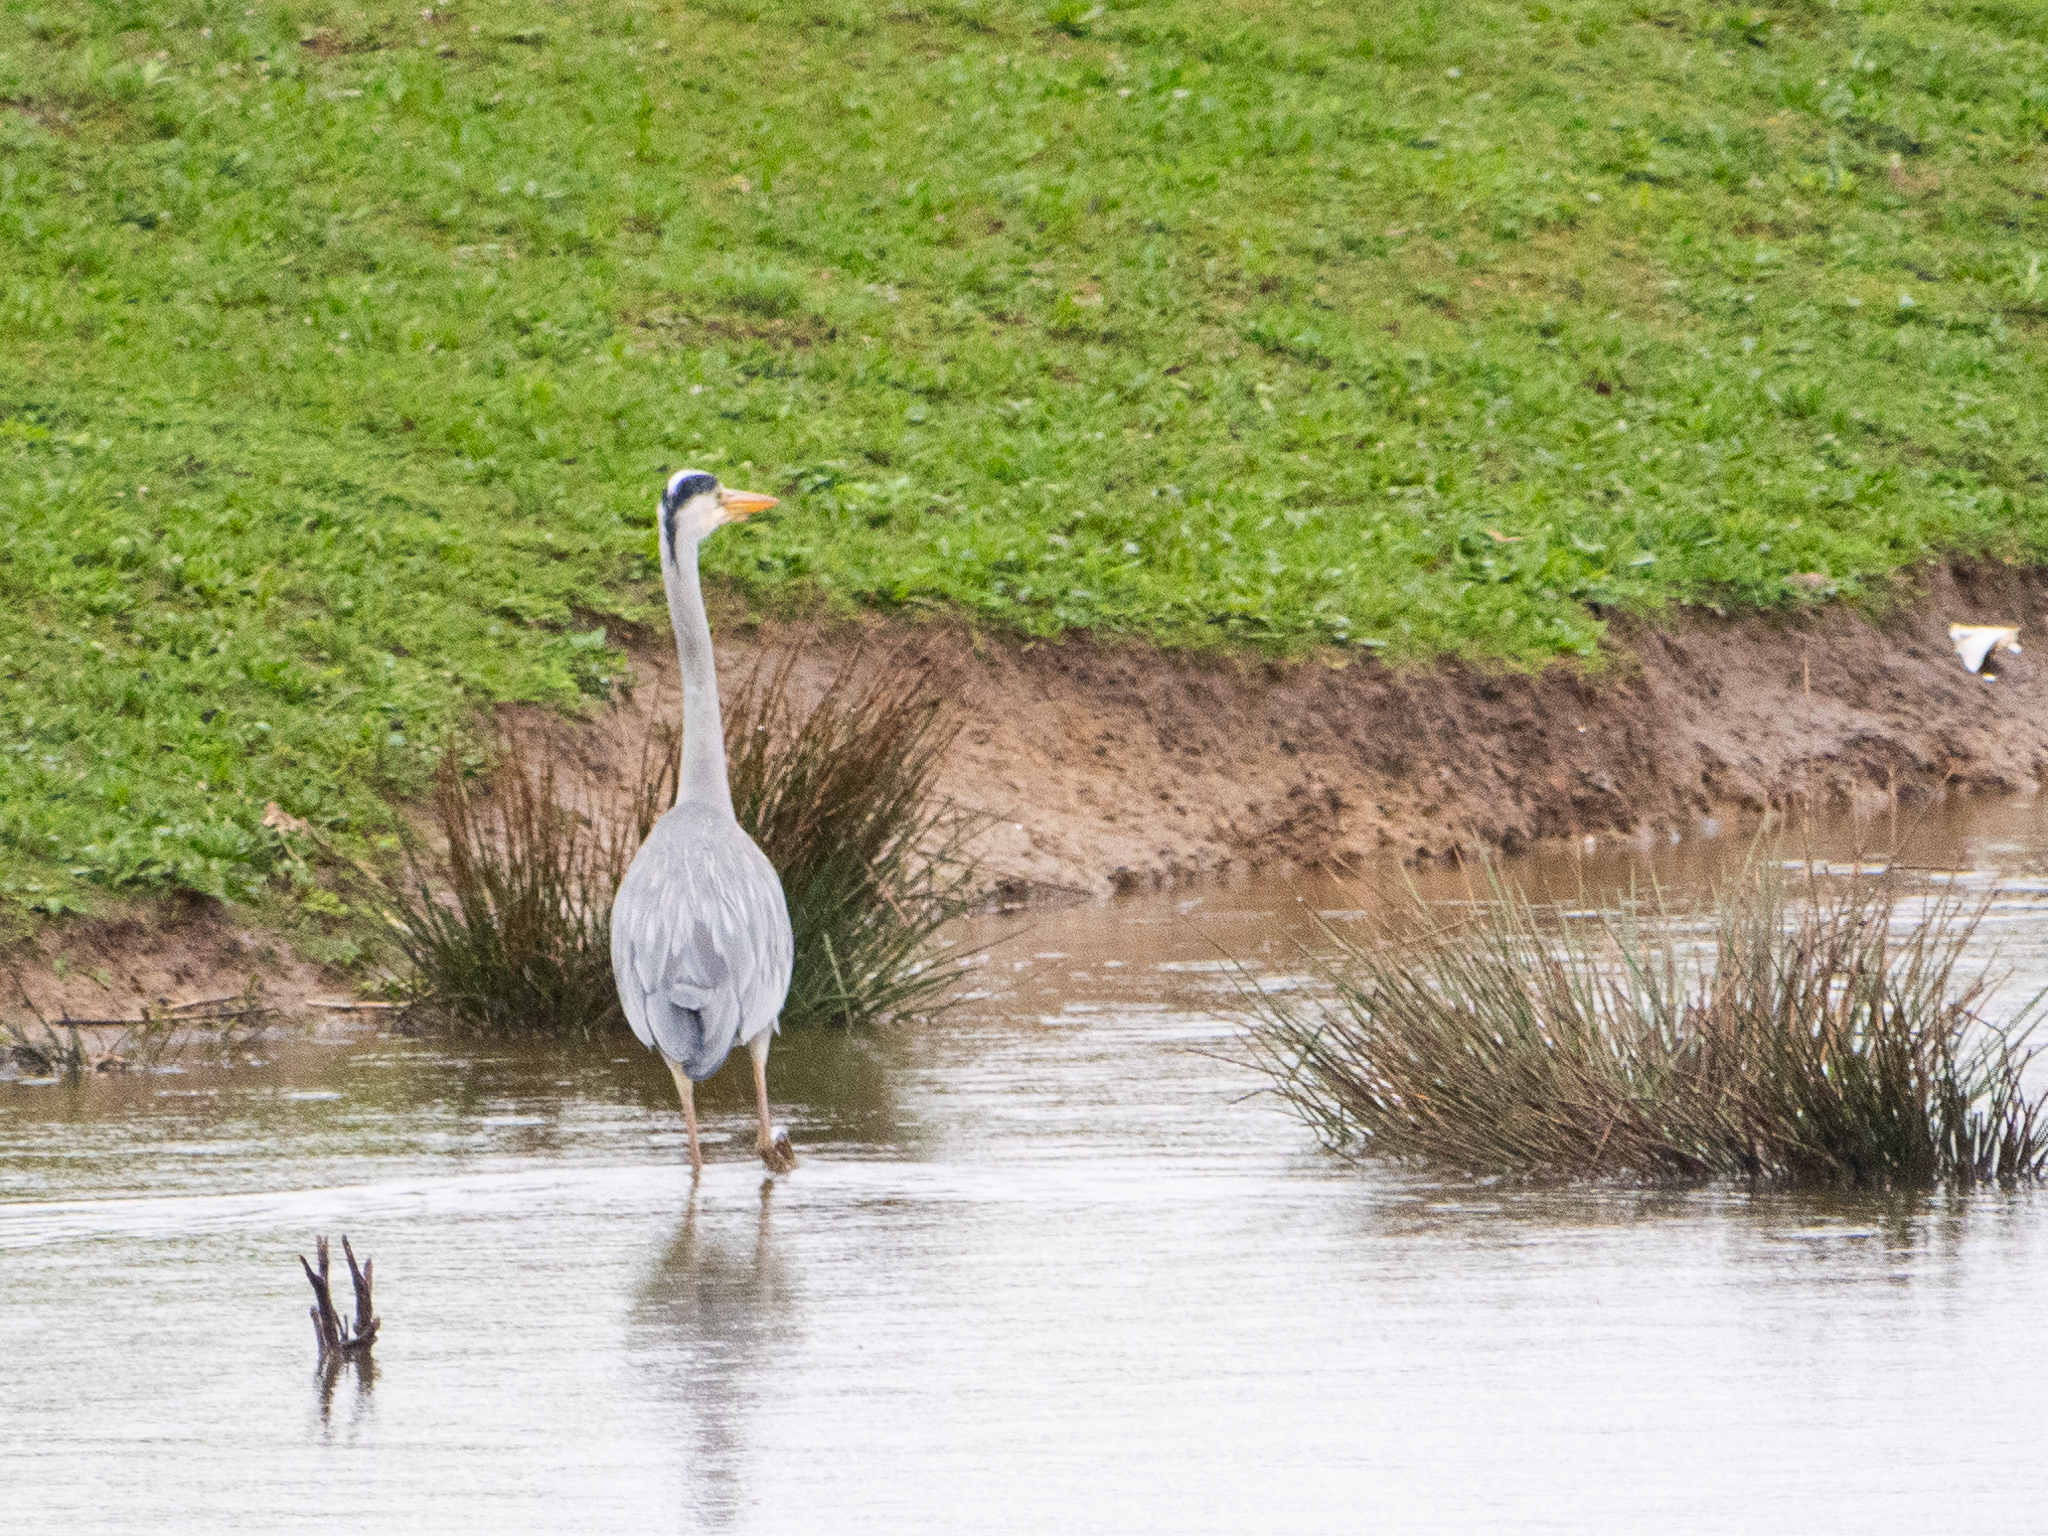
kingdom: Animalia
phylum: Chordata
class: Aves
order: Pelecaniformes
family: Ardeidae
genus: Ardea
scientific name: Ardea cinerea
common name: Grey heron
